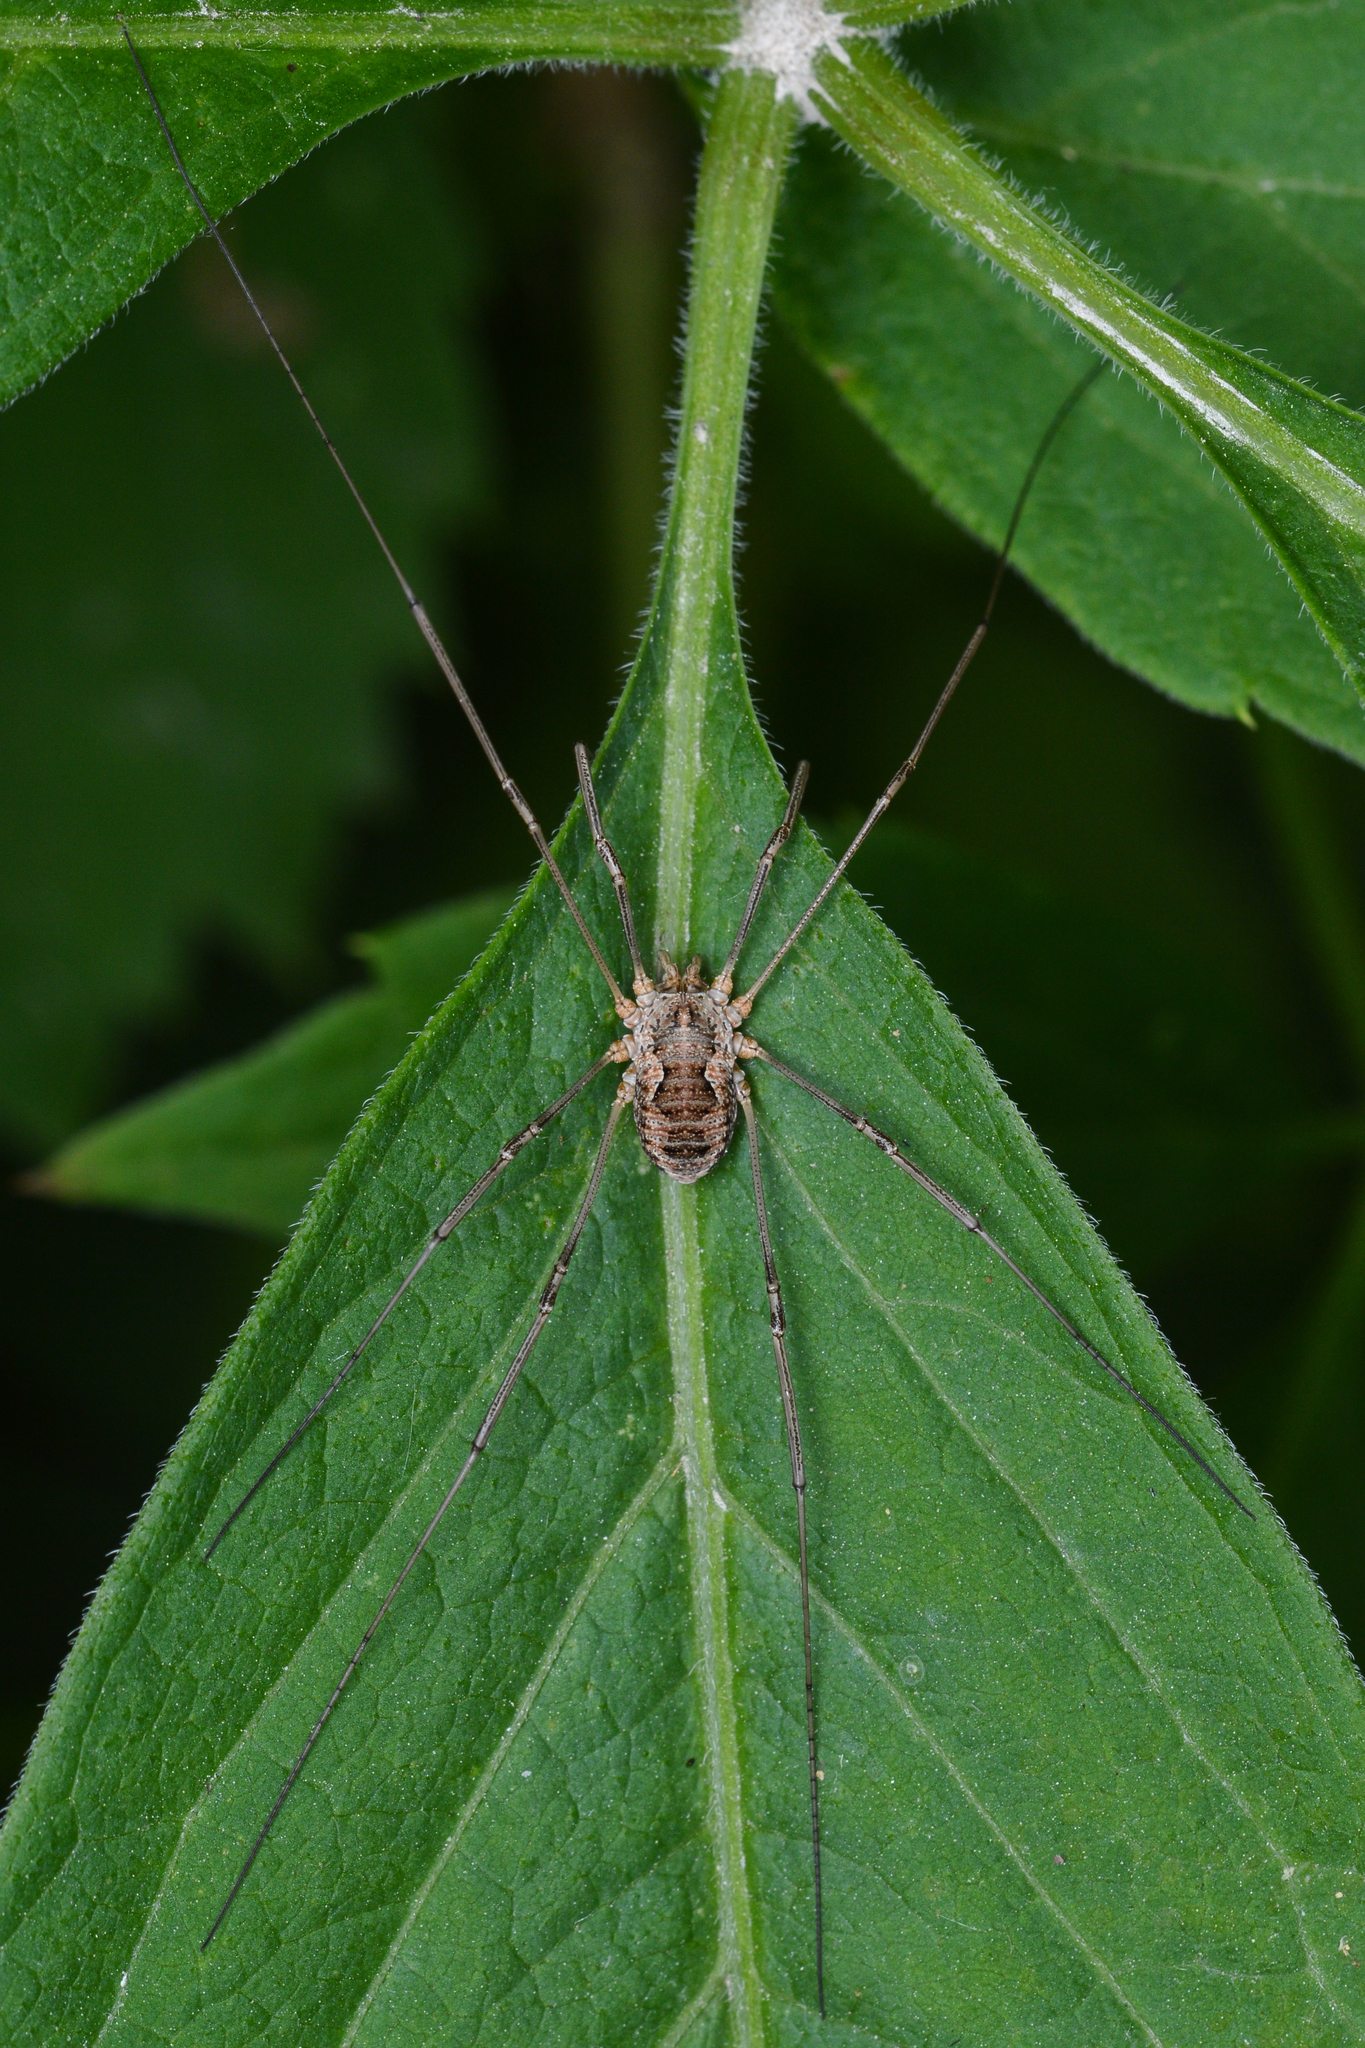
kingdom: Animalia
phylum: Arthropoda
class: Arachnida
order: Opiliones
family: Phalangiidae
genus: Phalangium
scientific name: Phalangium opilio
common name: Daddy longleg
